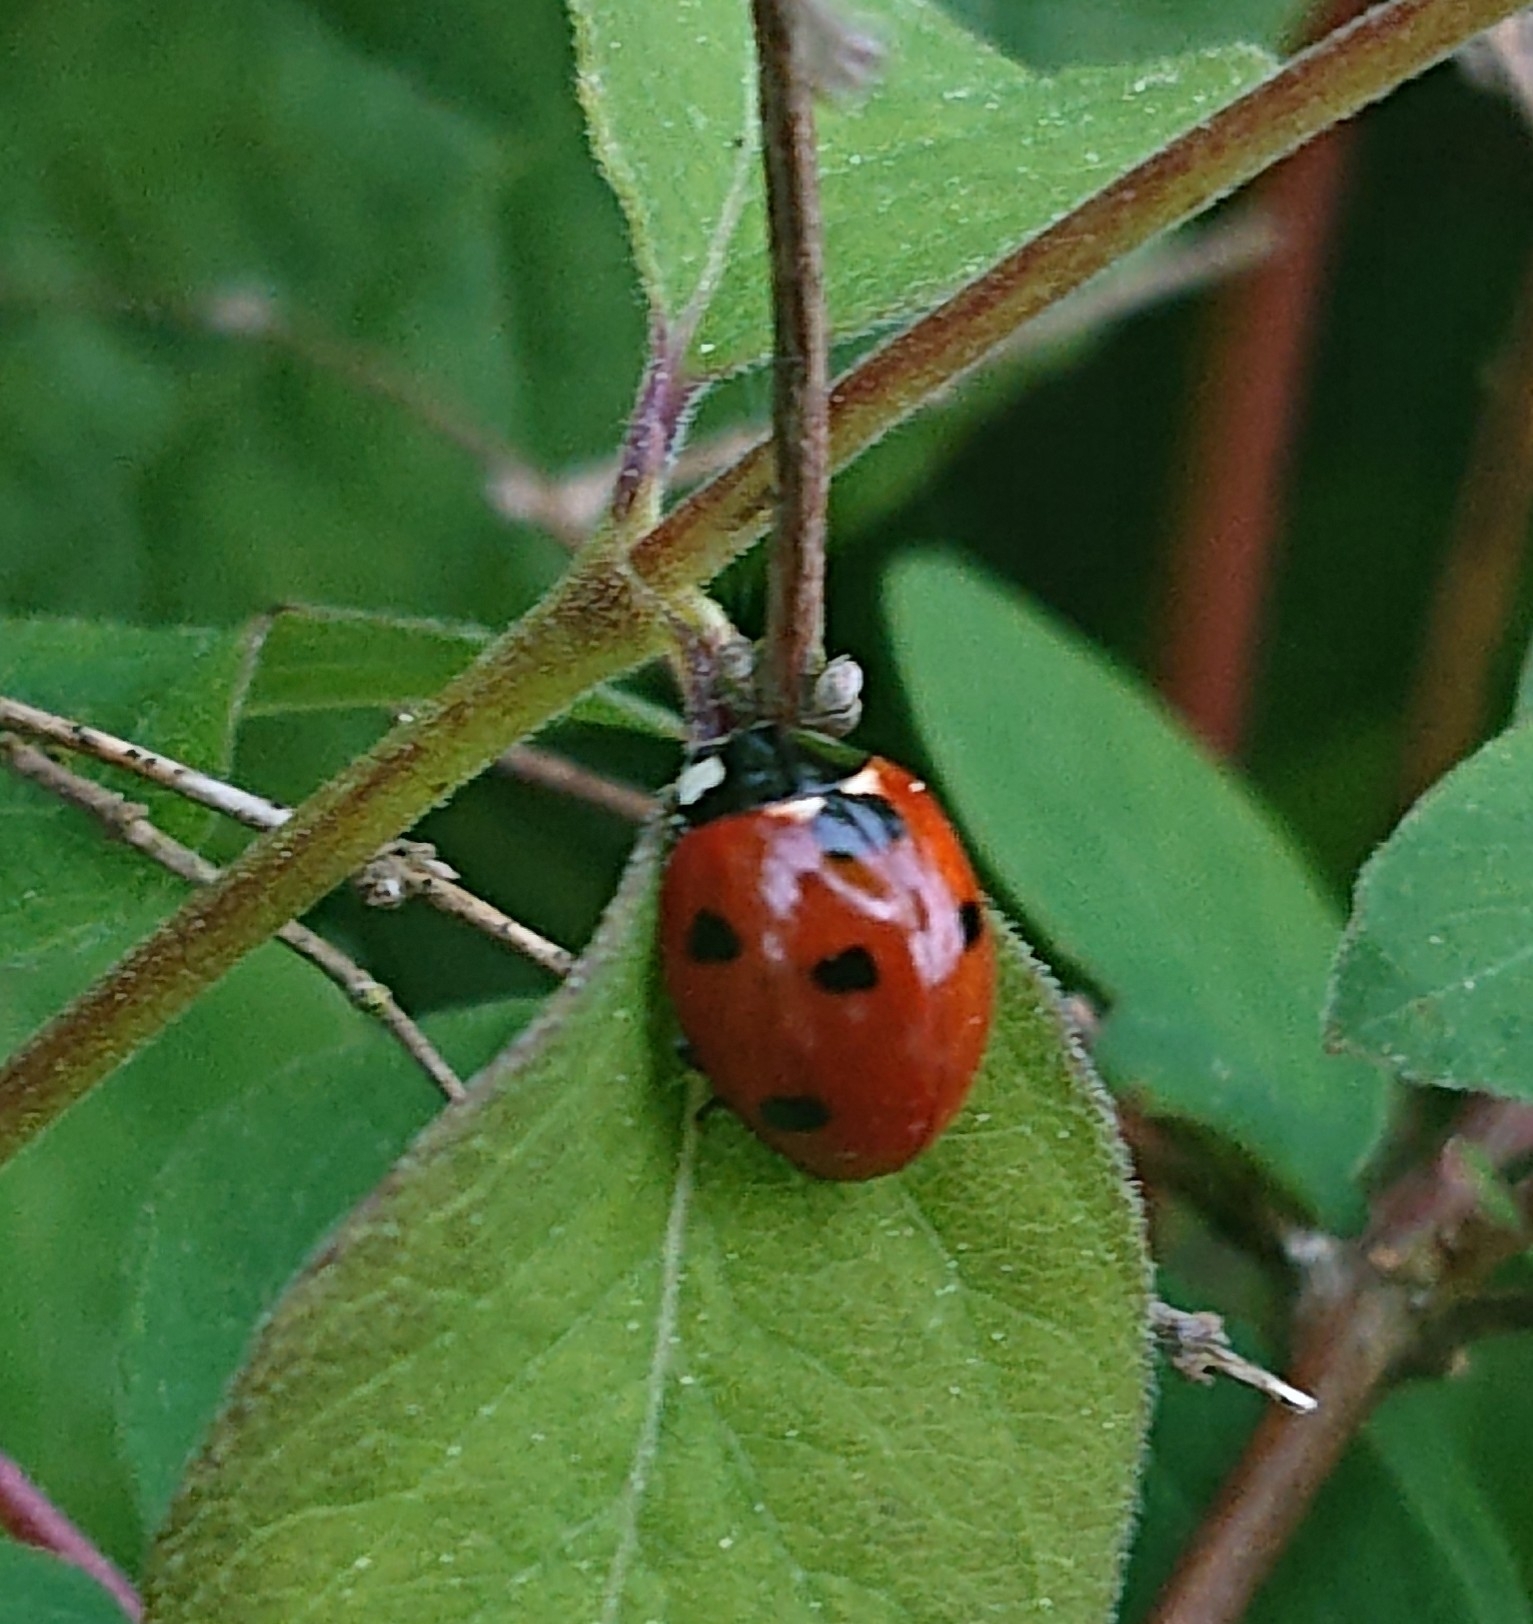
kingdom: Animalia
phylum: Arthropoda
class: Insecta
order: Coleoptera
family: Coccinellidae
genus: Coccinella
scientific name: Coccinella septempunctata
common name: Sevenspotted lady beetle
